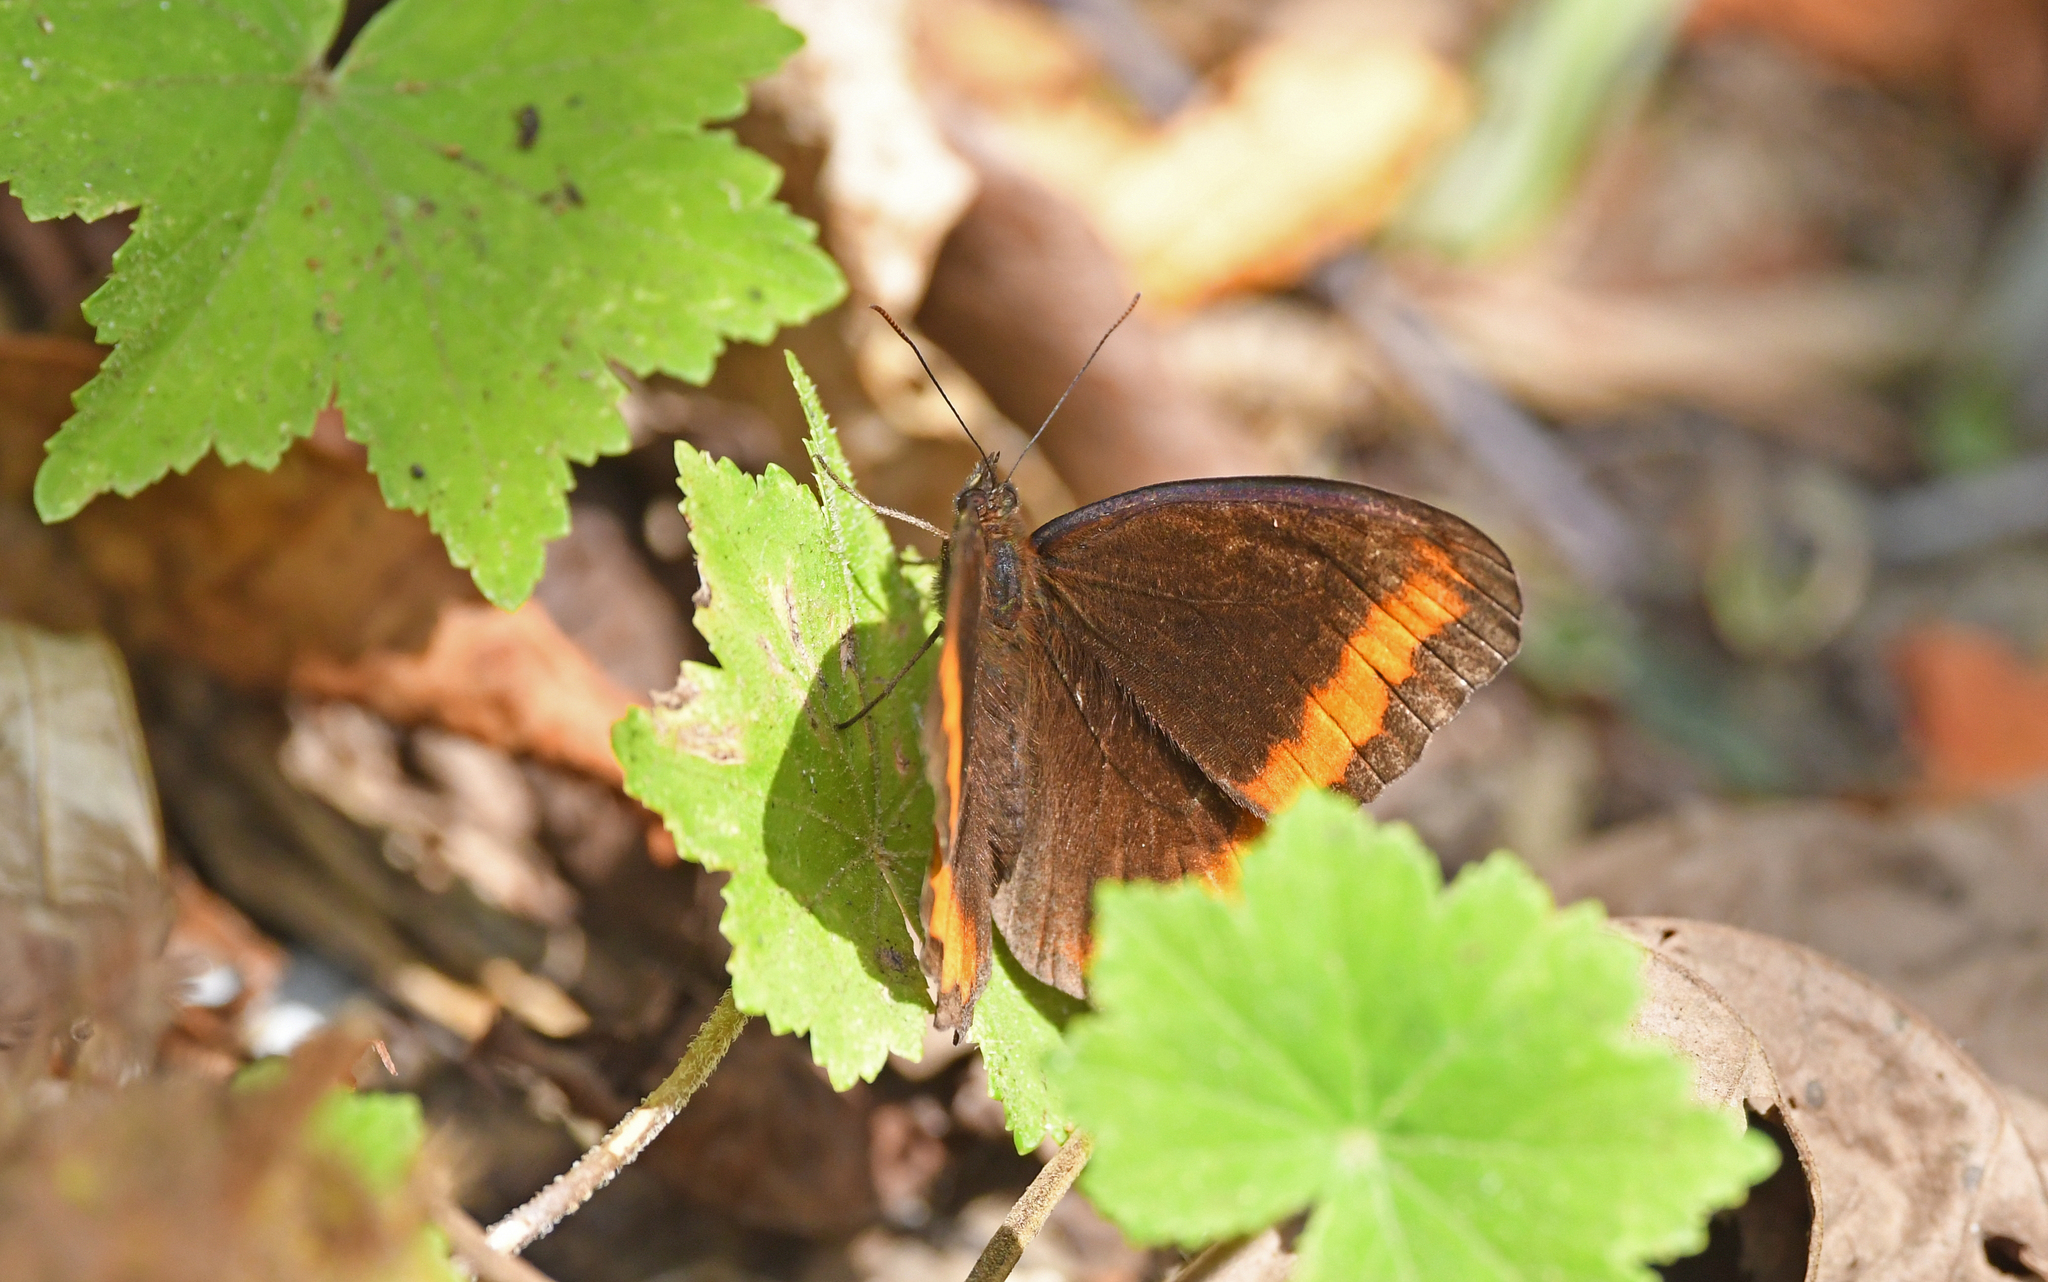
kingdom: Animalia
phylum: Arthropoda
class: Insecta
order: Lepidoptera
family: Nymphalidae
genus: Pedaliodes
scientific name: Pedaliodes
